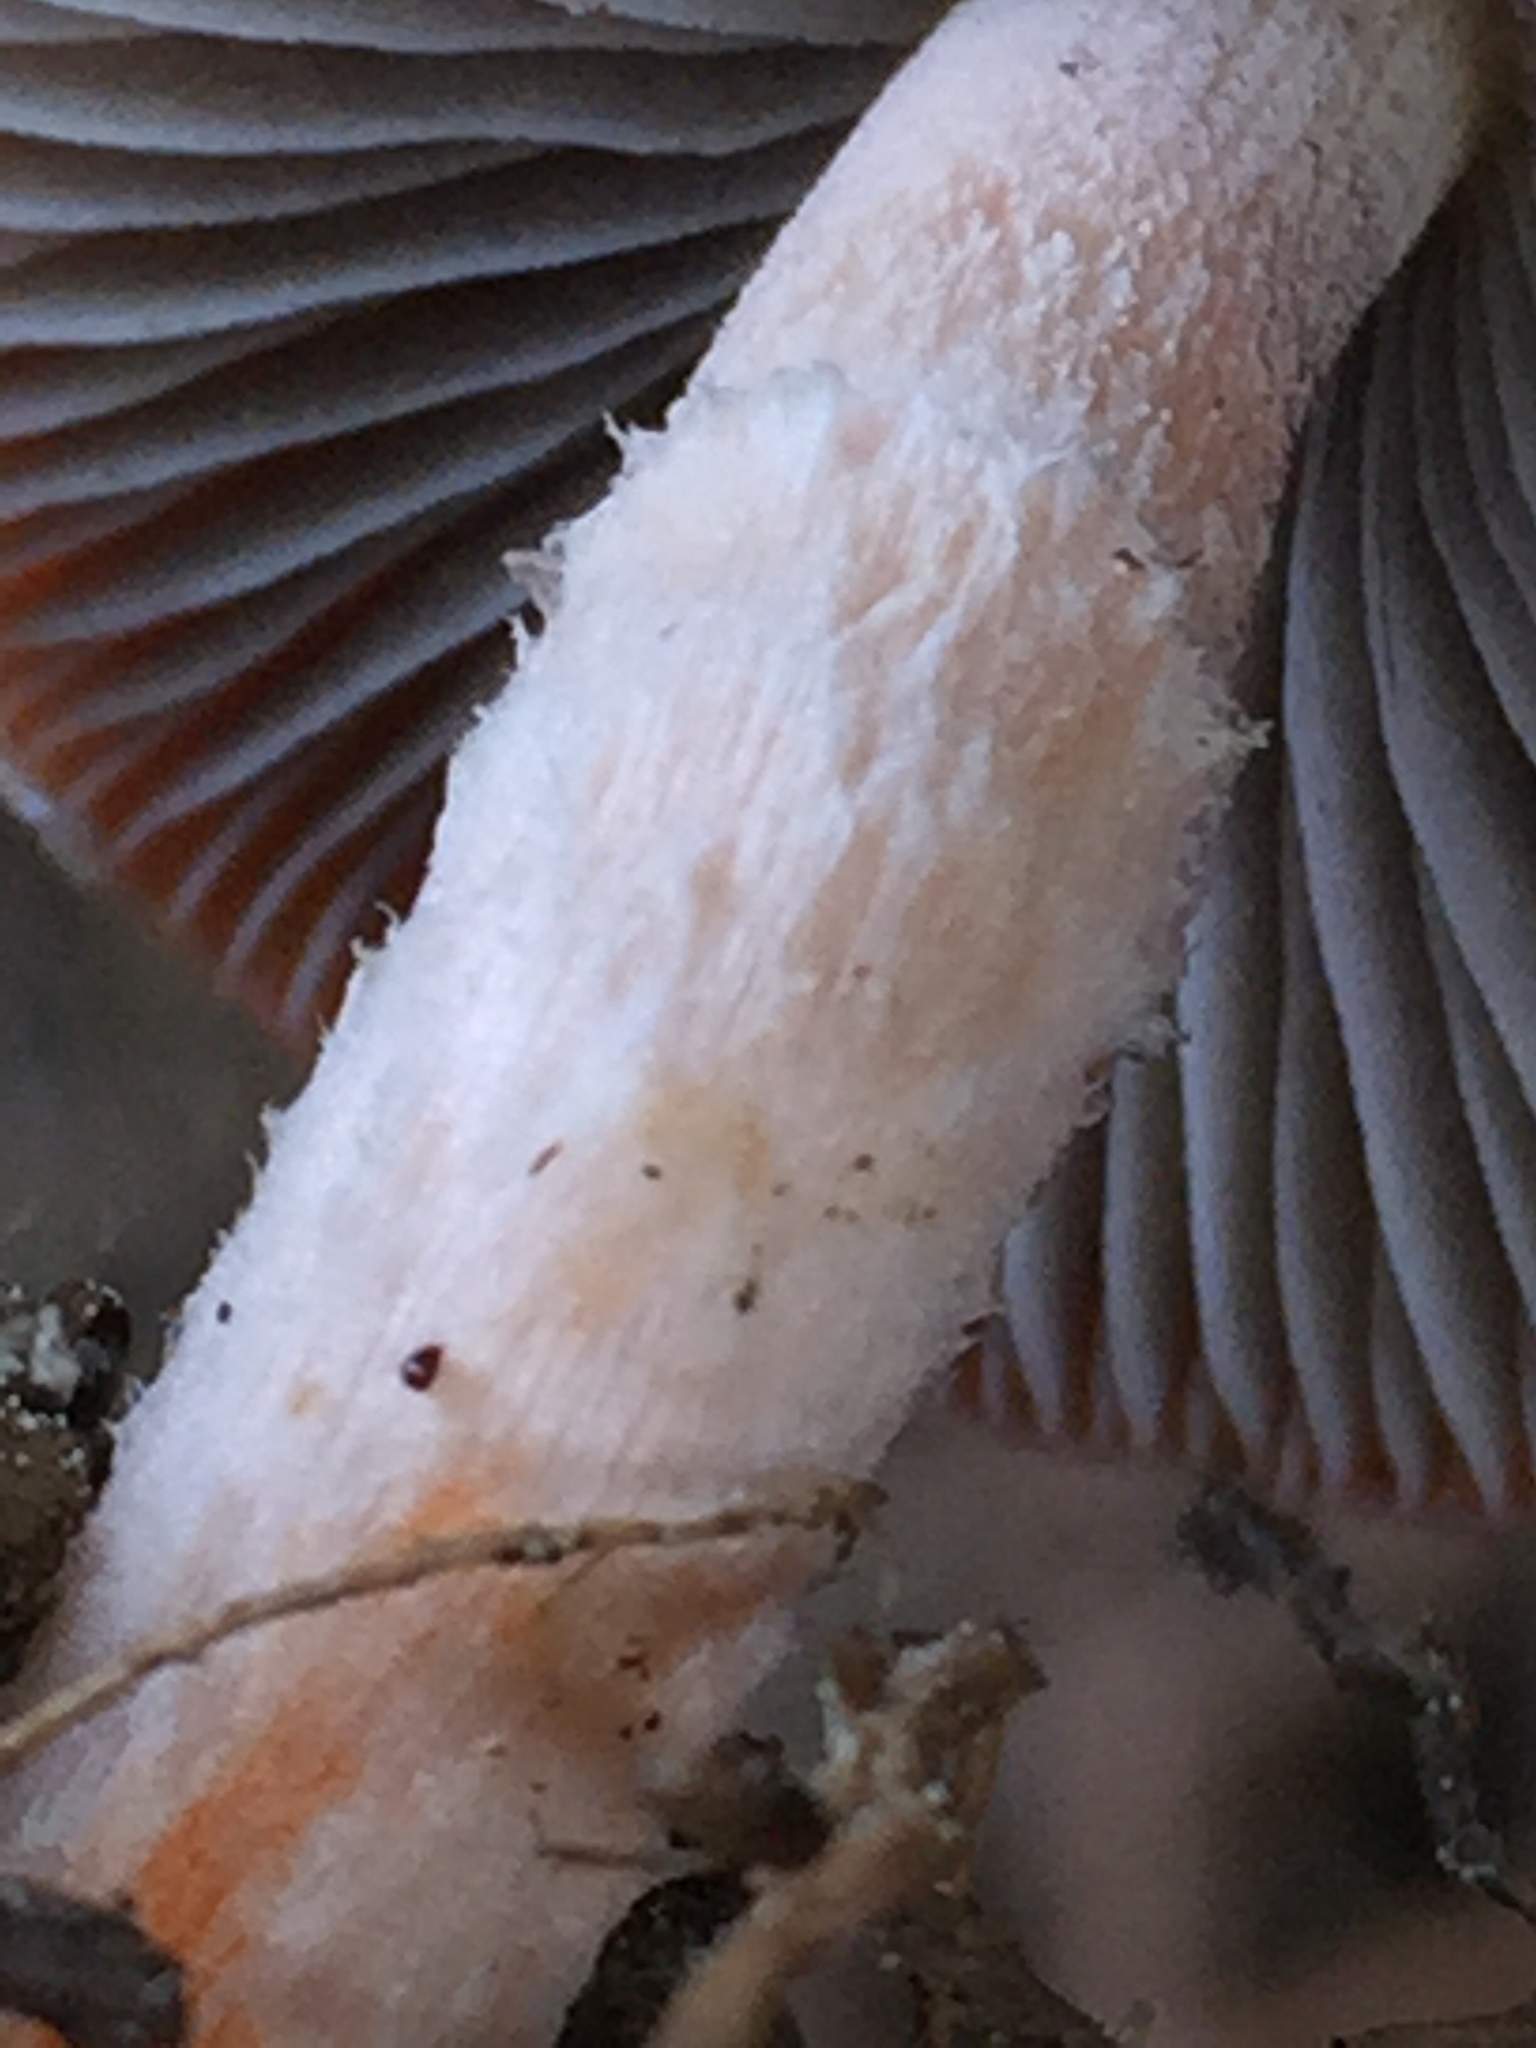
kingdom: Fungi
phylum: Basidiomycota
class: Agaricomycetes
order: Agaricales
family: Strophariaceae
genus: Leratiomyces
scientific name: Leratiomyces ceres
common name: Redlead roundhead
